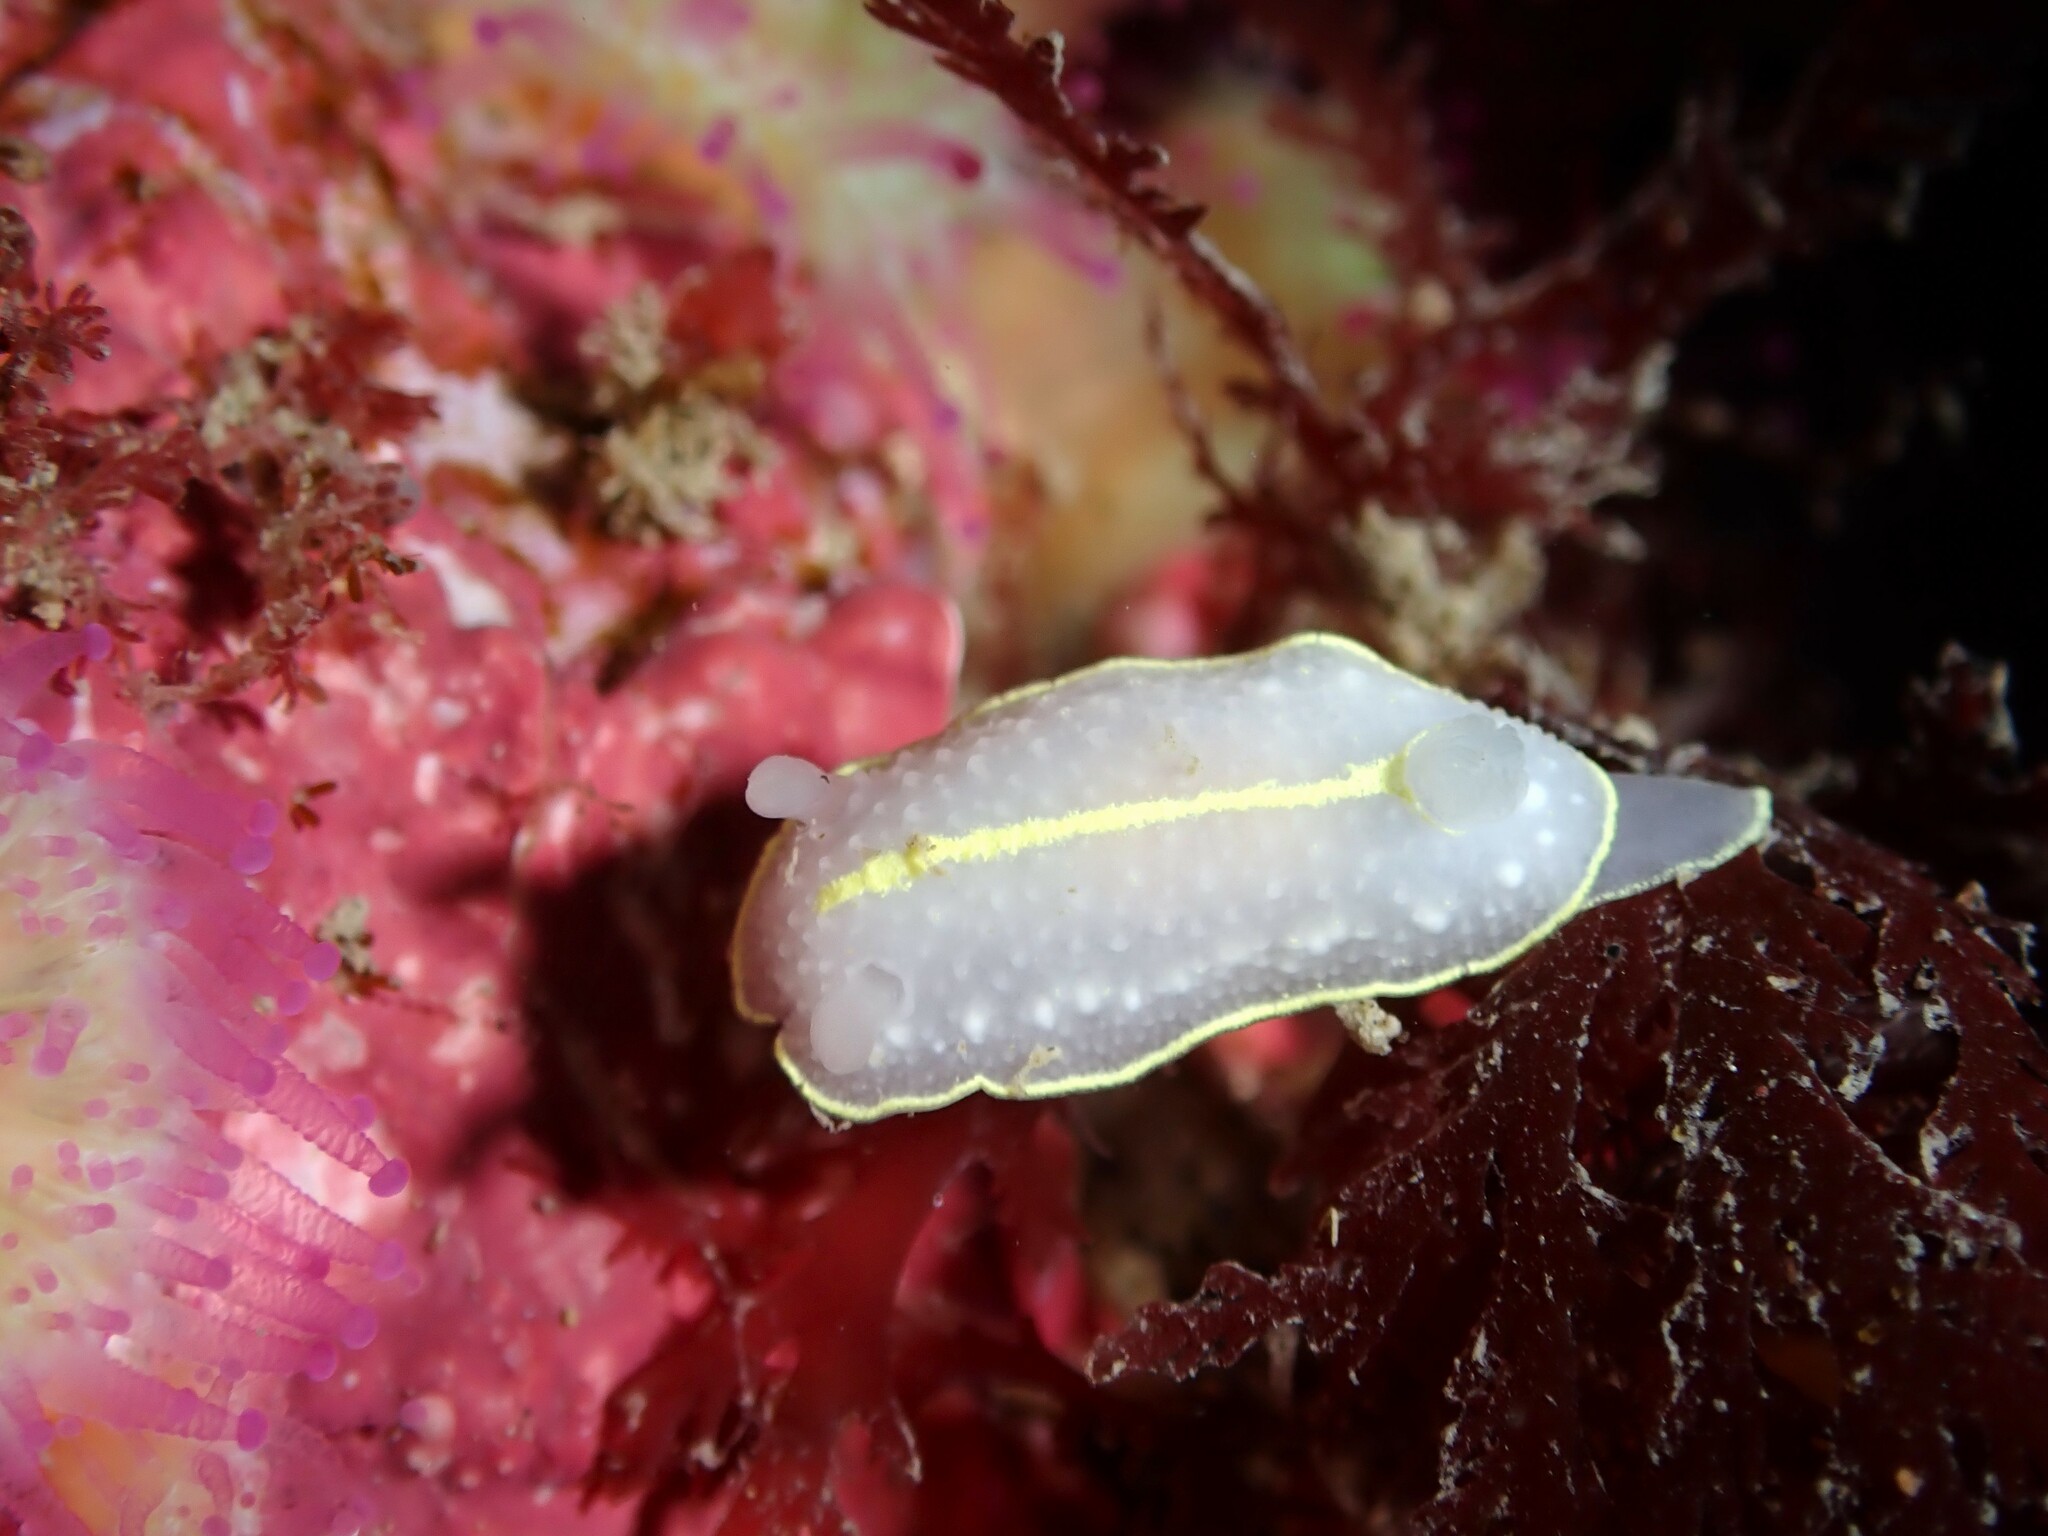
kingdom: Animalia
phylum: Mollusca
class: Gastropoda
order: Nudibranchia
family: Cadlinidae
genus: Cadlina
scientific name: Cadlina willani
